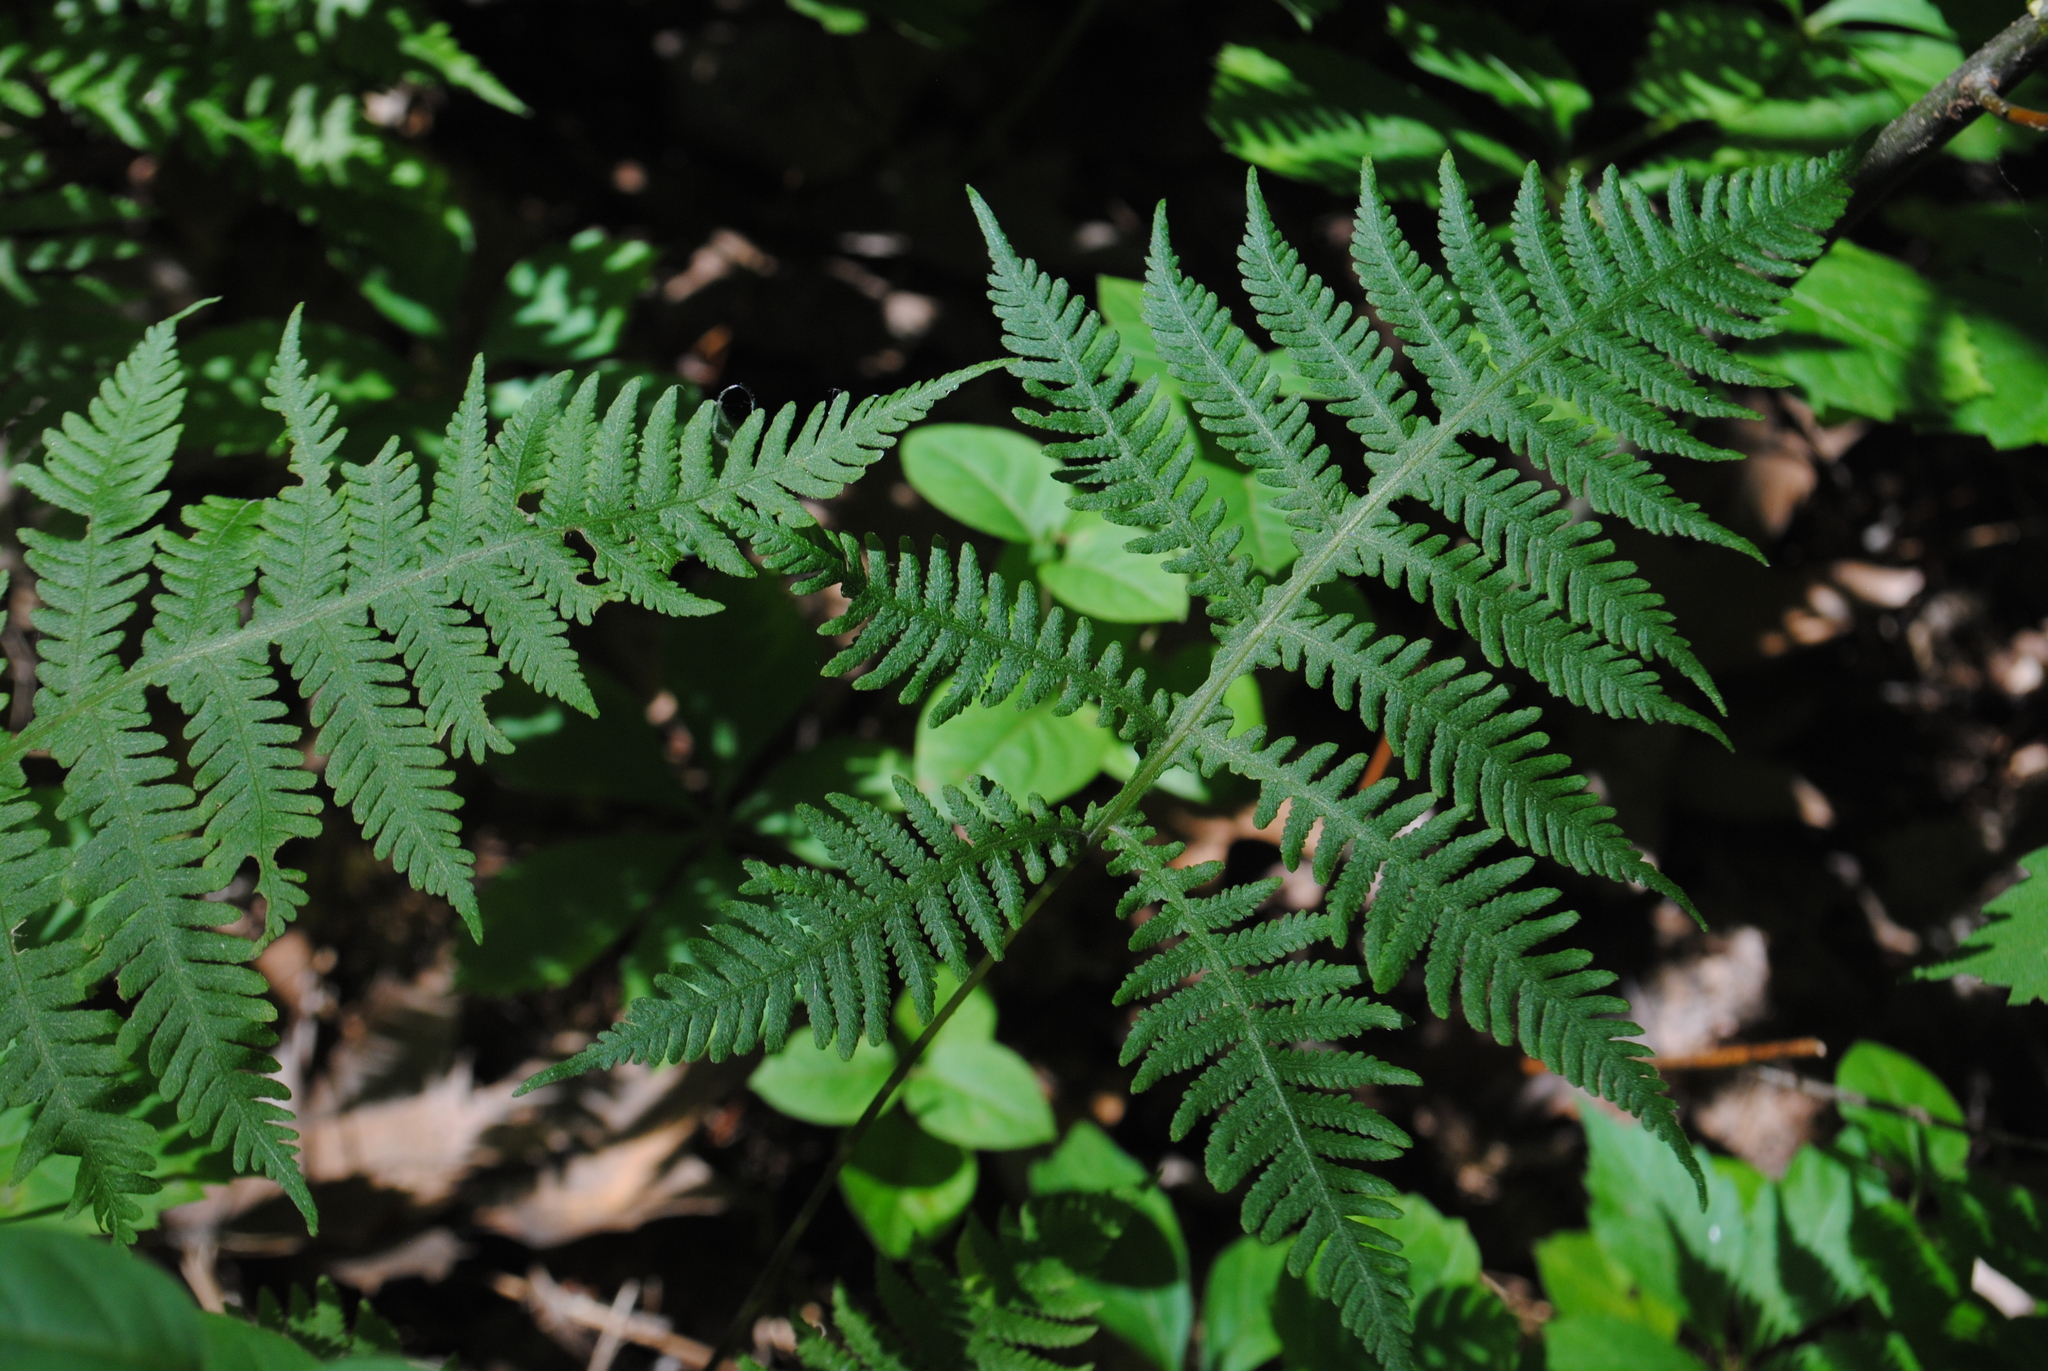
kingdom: Plantae
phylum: Tracheophyta
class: Polypodiopsida
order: Polypodiales
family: Thelypteridaceae
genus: Phegopteris
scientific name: Phegopteris hexagonoptera
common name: Broad beech fern
